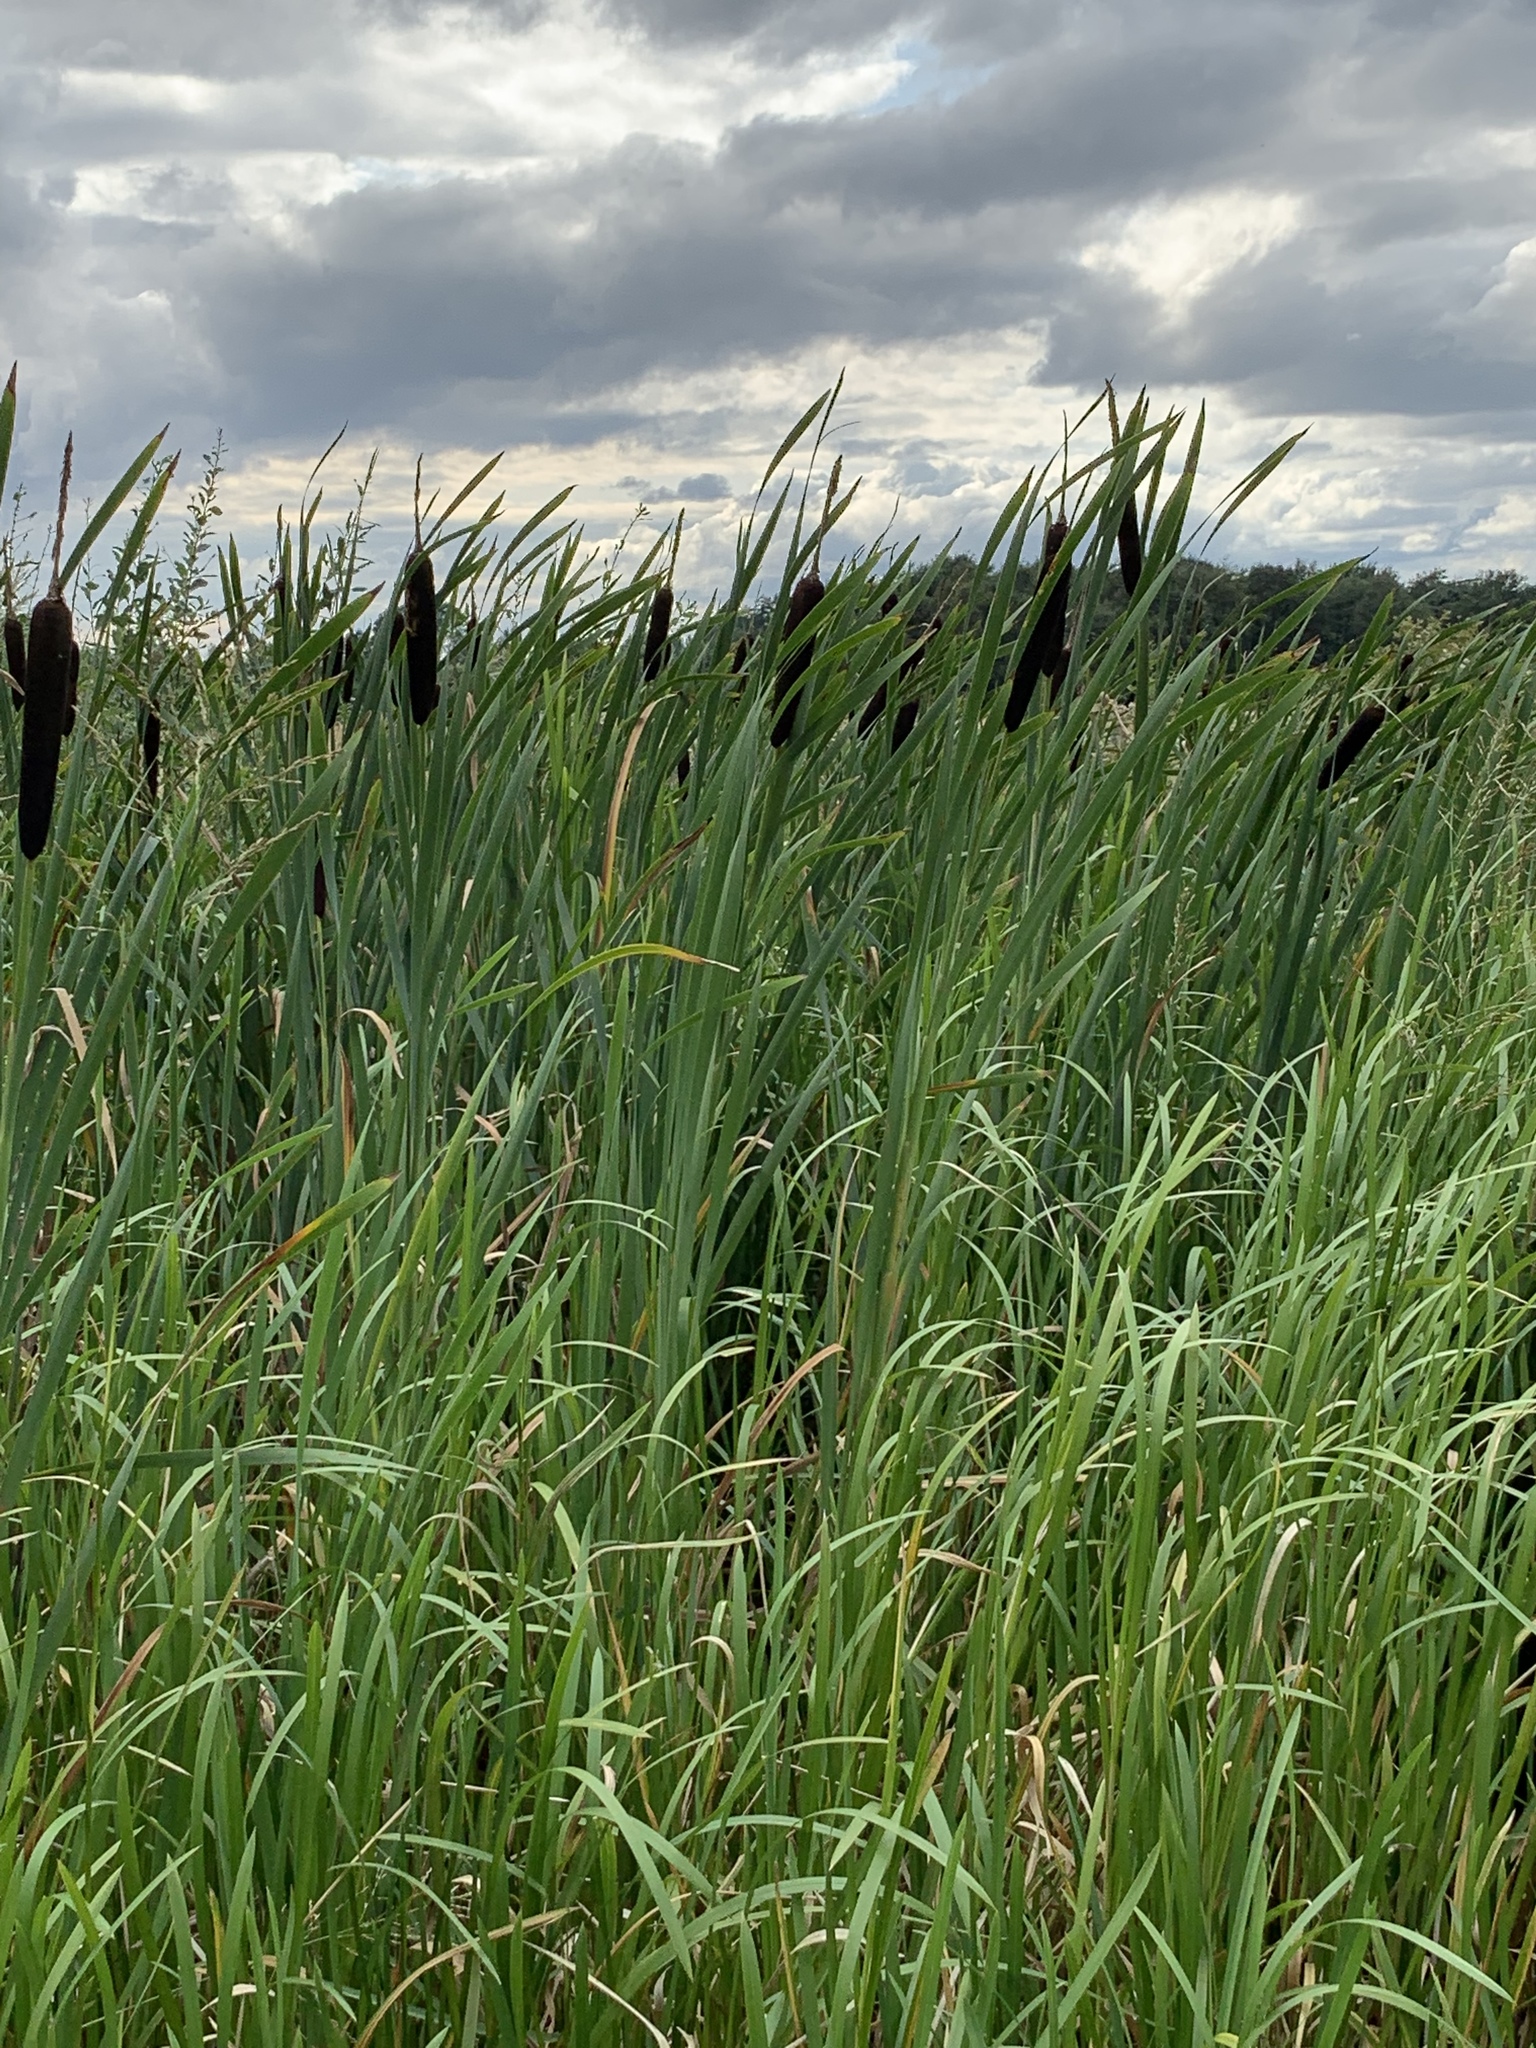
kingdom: Plantae
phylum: Tracheophyta
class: Liliopsida
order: Poales
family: Typhaceae
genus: Typha
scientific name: Typha latifolia
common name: Broadleaf cattail
